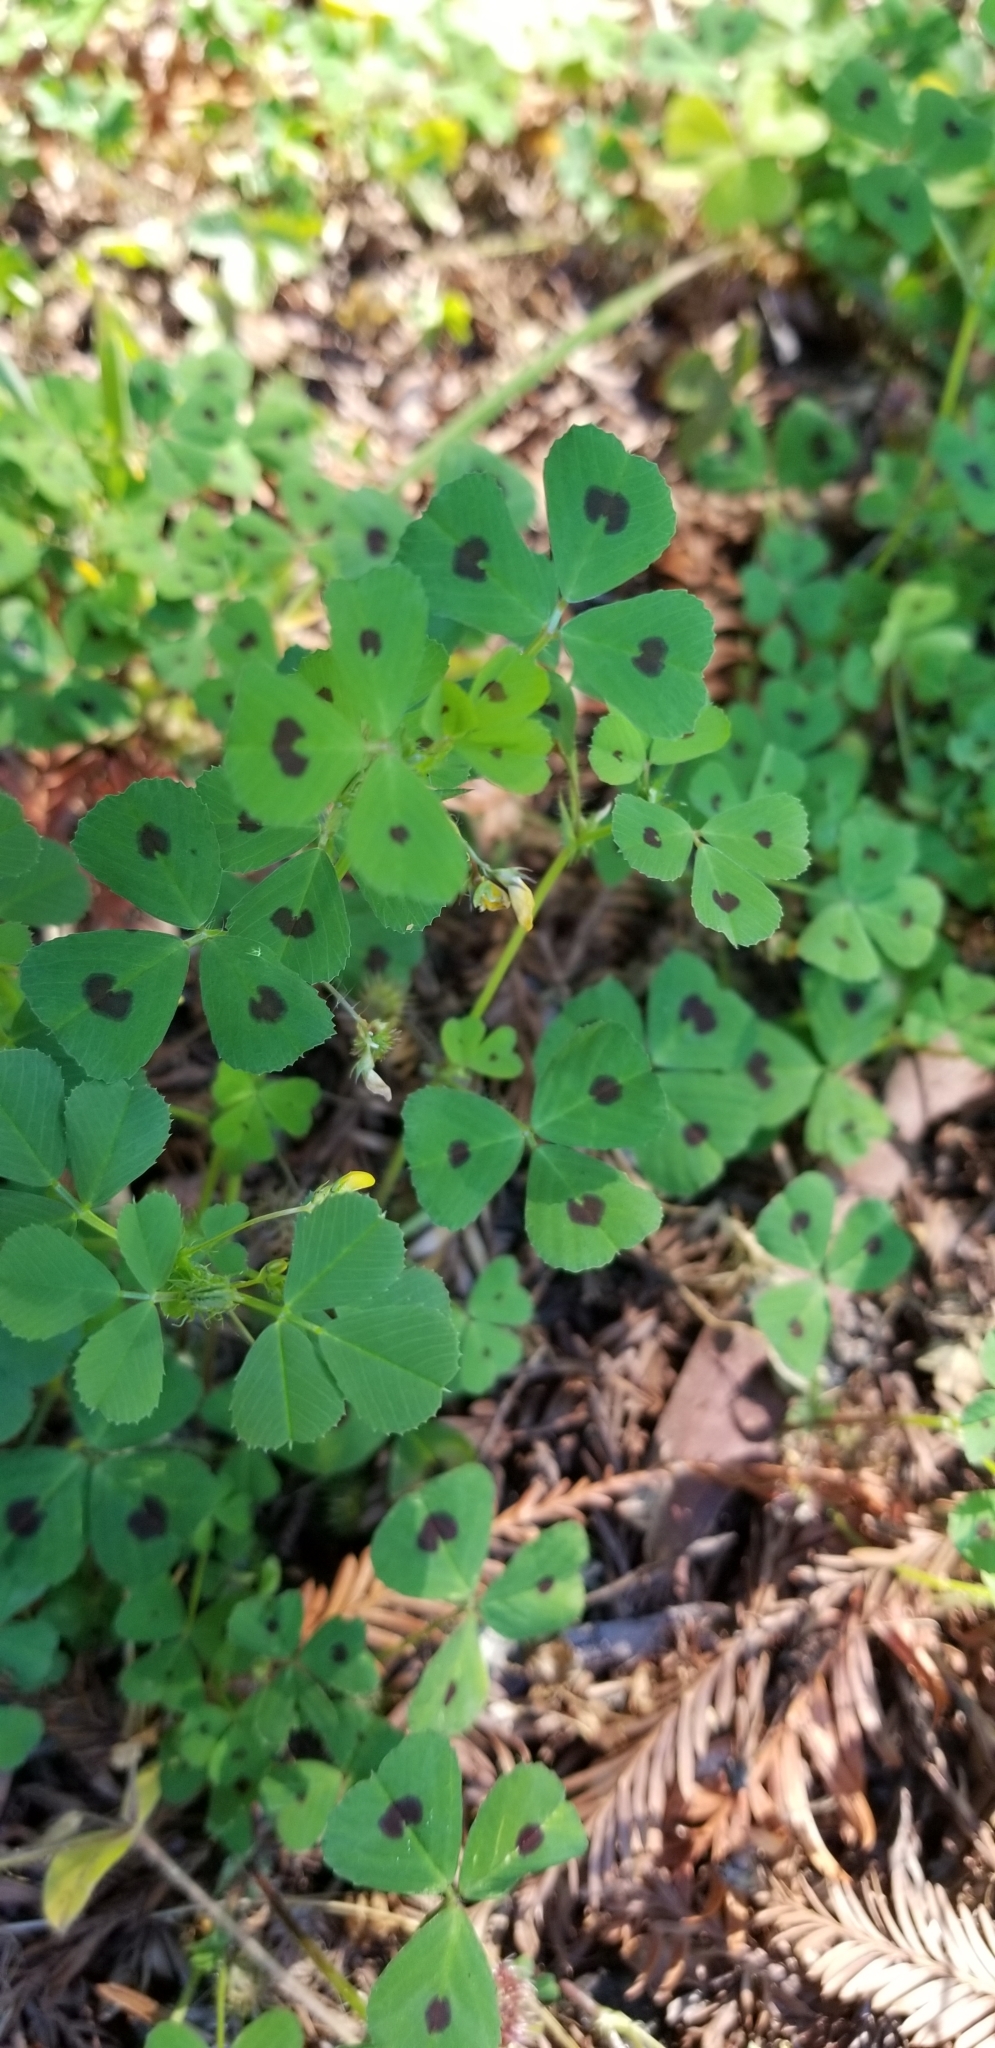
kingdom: Plantae
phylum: Tracheophyta
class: Magnoliopsida
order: Fabales
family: Fabaceae
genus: Medicago
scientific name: Medicago arabica
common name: Spotted medick
